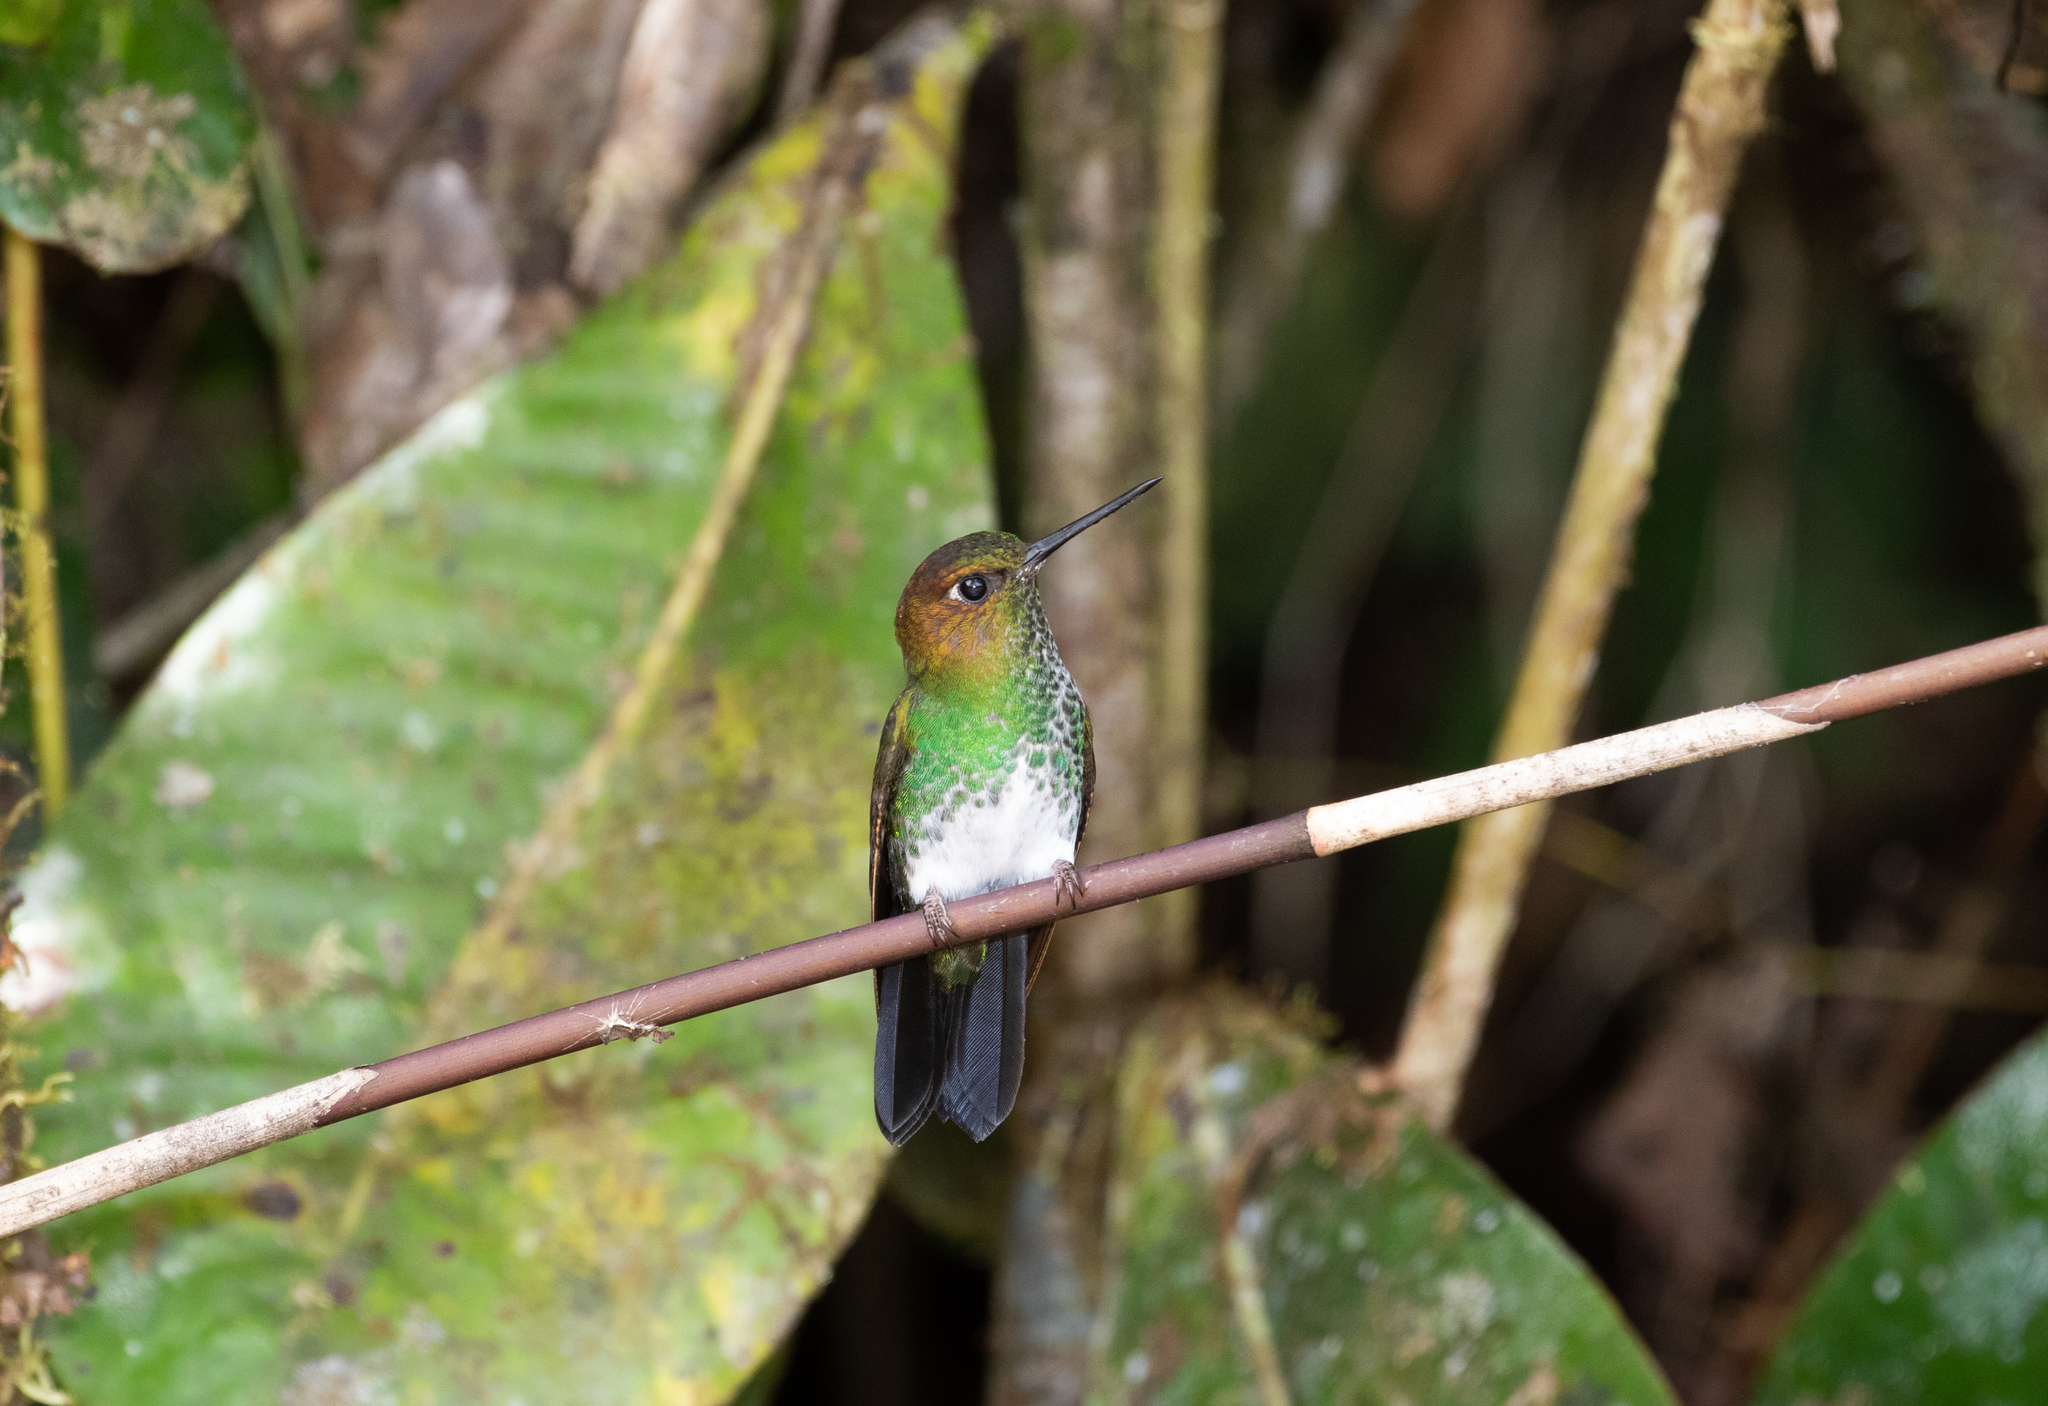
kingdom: Animalia
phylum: Chordata
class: Aves
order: Apodiformes
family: Trochilidae
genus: Haplophaedia
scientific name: Haplophaedia aureliae
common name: Greenish puffleg
